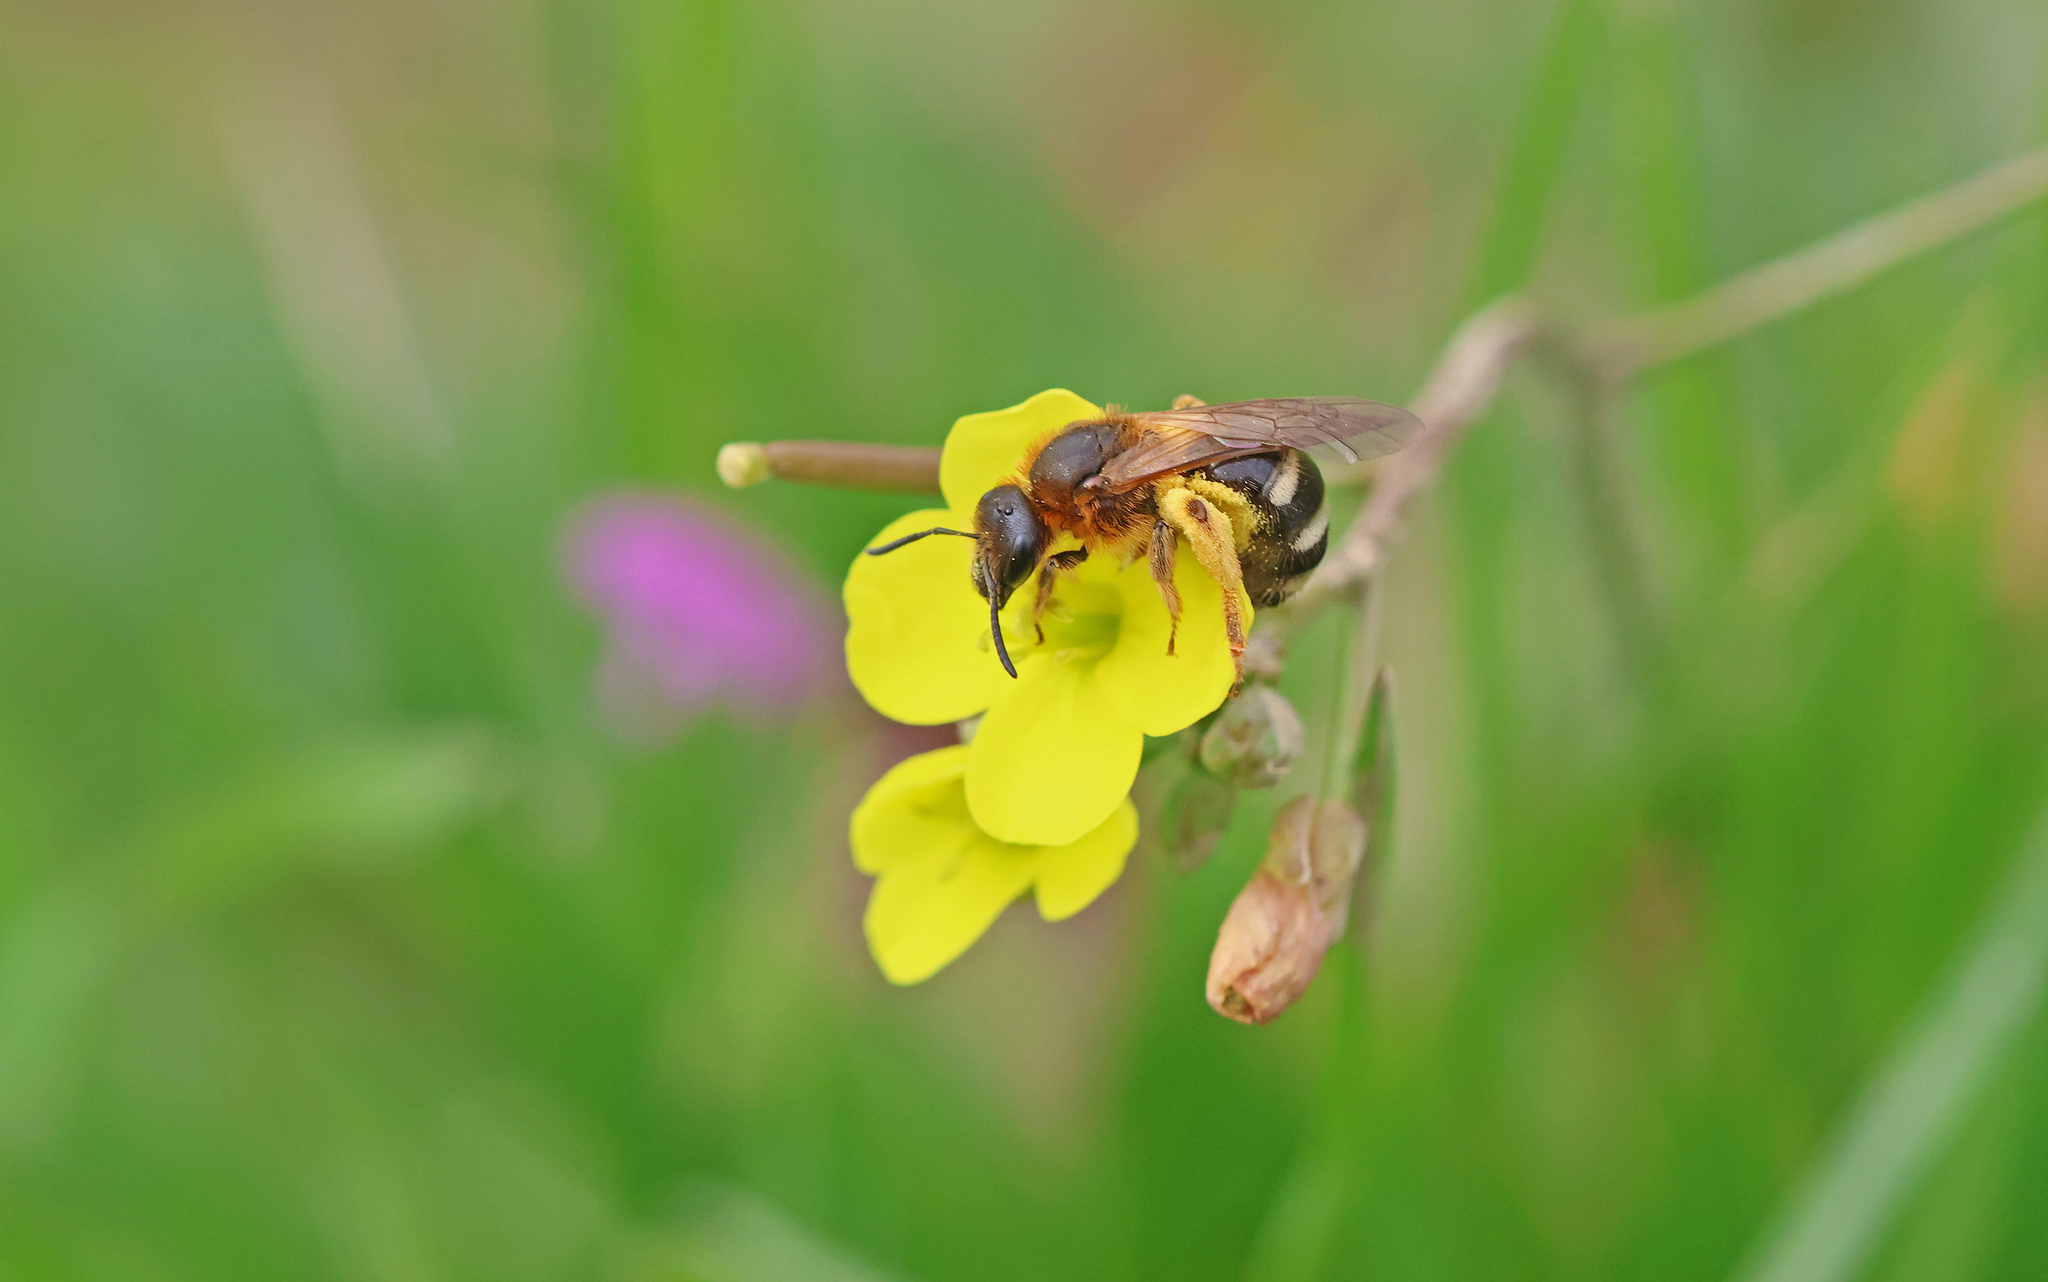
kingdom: Animalia
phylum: Arthropoda
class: Insecta
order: Hymenoptera
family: Halictidae
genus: Lasioglossum
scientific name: Lasioglossum xanthopus
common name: Orange-footed furrow bee
